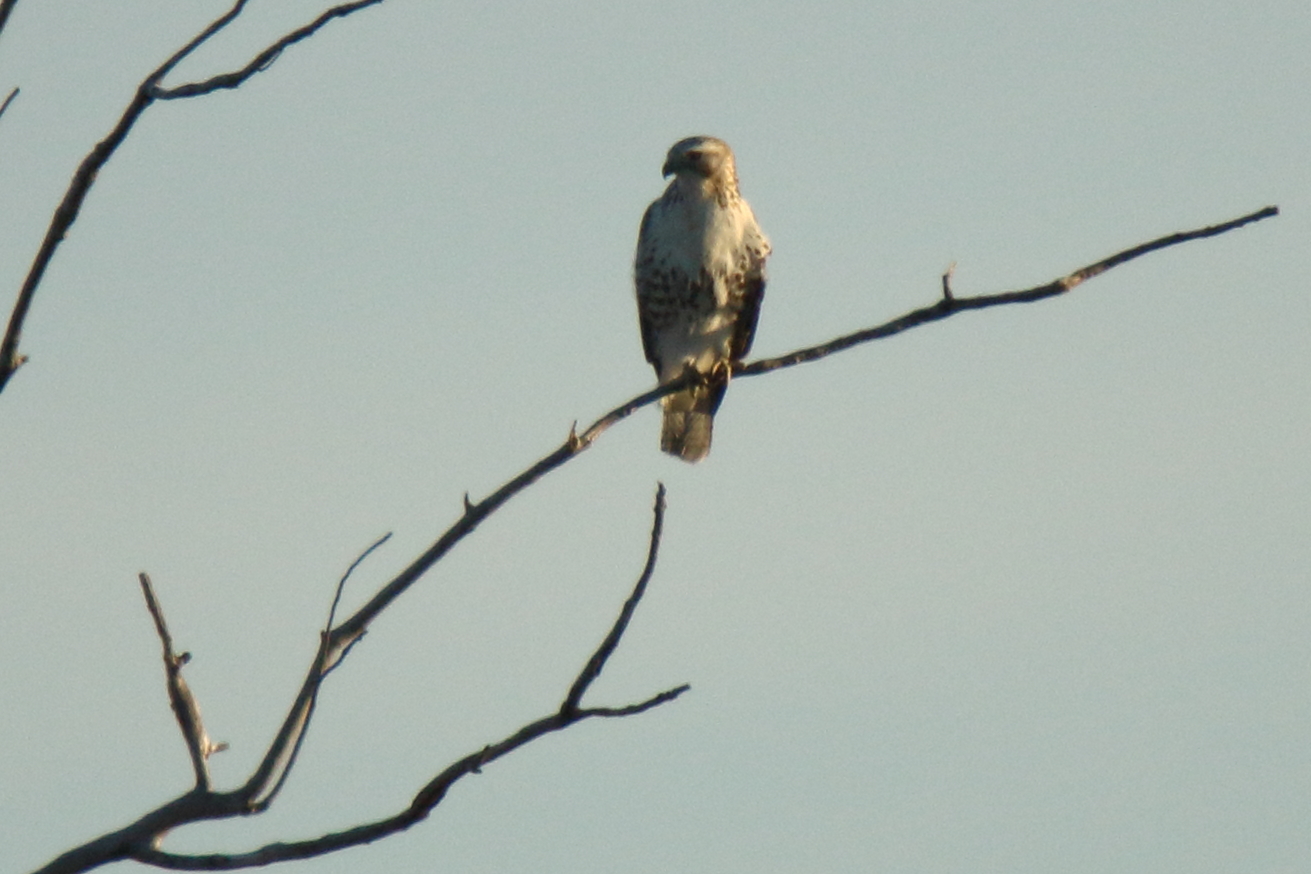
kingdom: Animalia
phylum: Chordata
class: Aves
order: Accipitriformes
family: Accipitridae
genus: Buteo
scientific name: Buteo jamaicensis
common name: Red-tailed hawk
